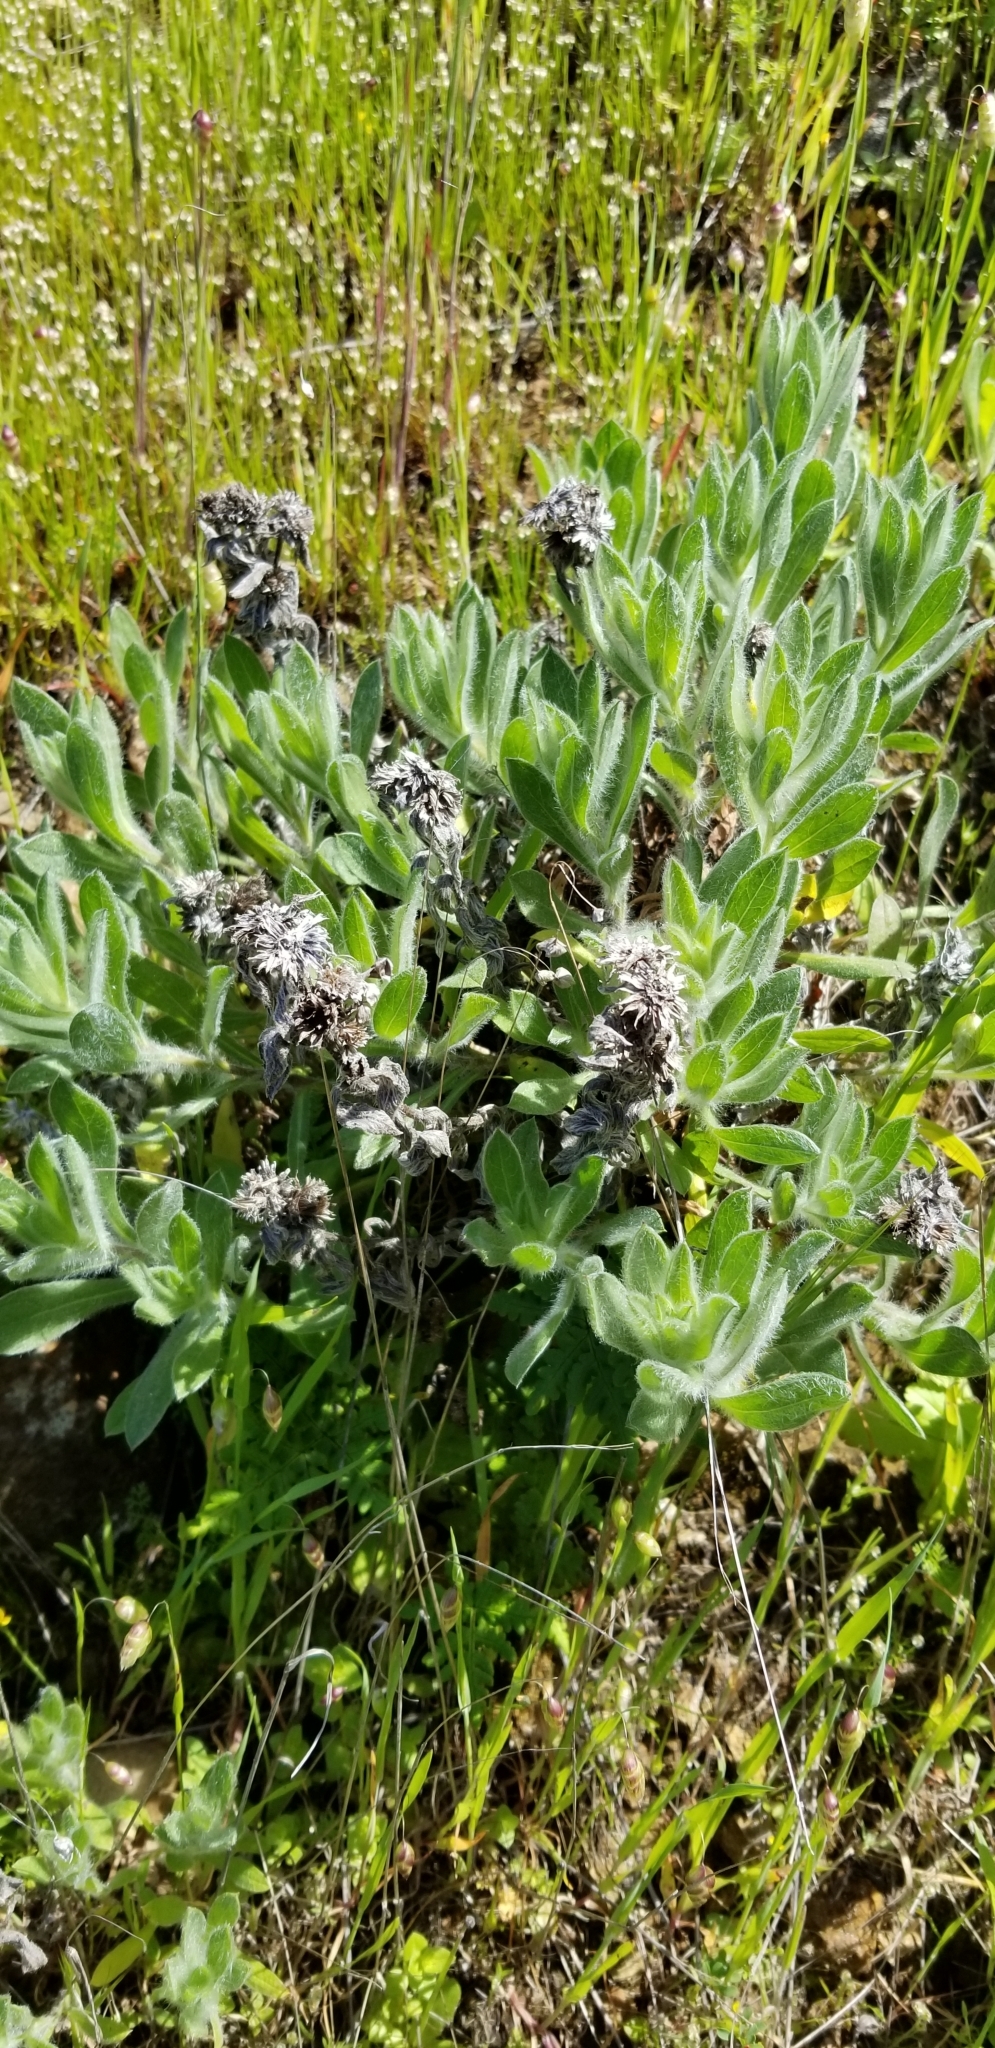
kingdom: Plantae
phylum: Tracheophyta
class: Magnoliopsida
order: Asterales
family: Asteraceae
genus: Heterotheca
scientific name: Heterotheca sessiliflora
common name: Sessile-flower golden-aster
